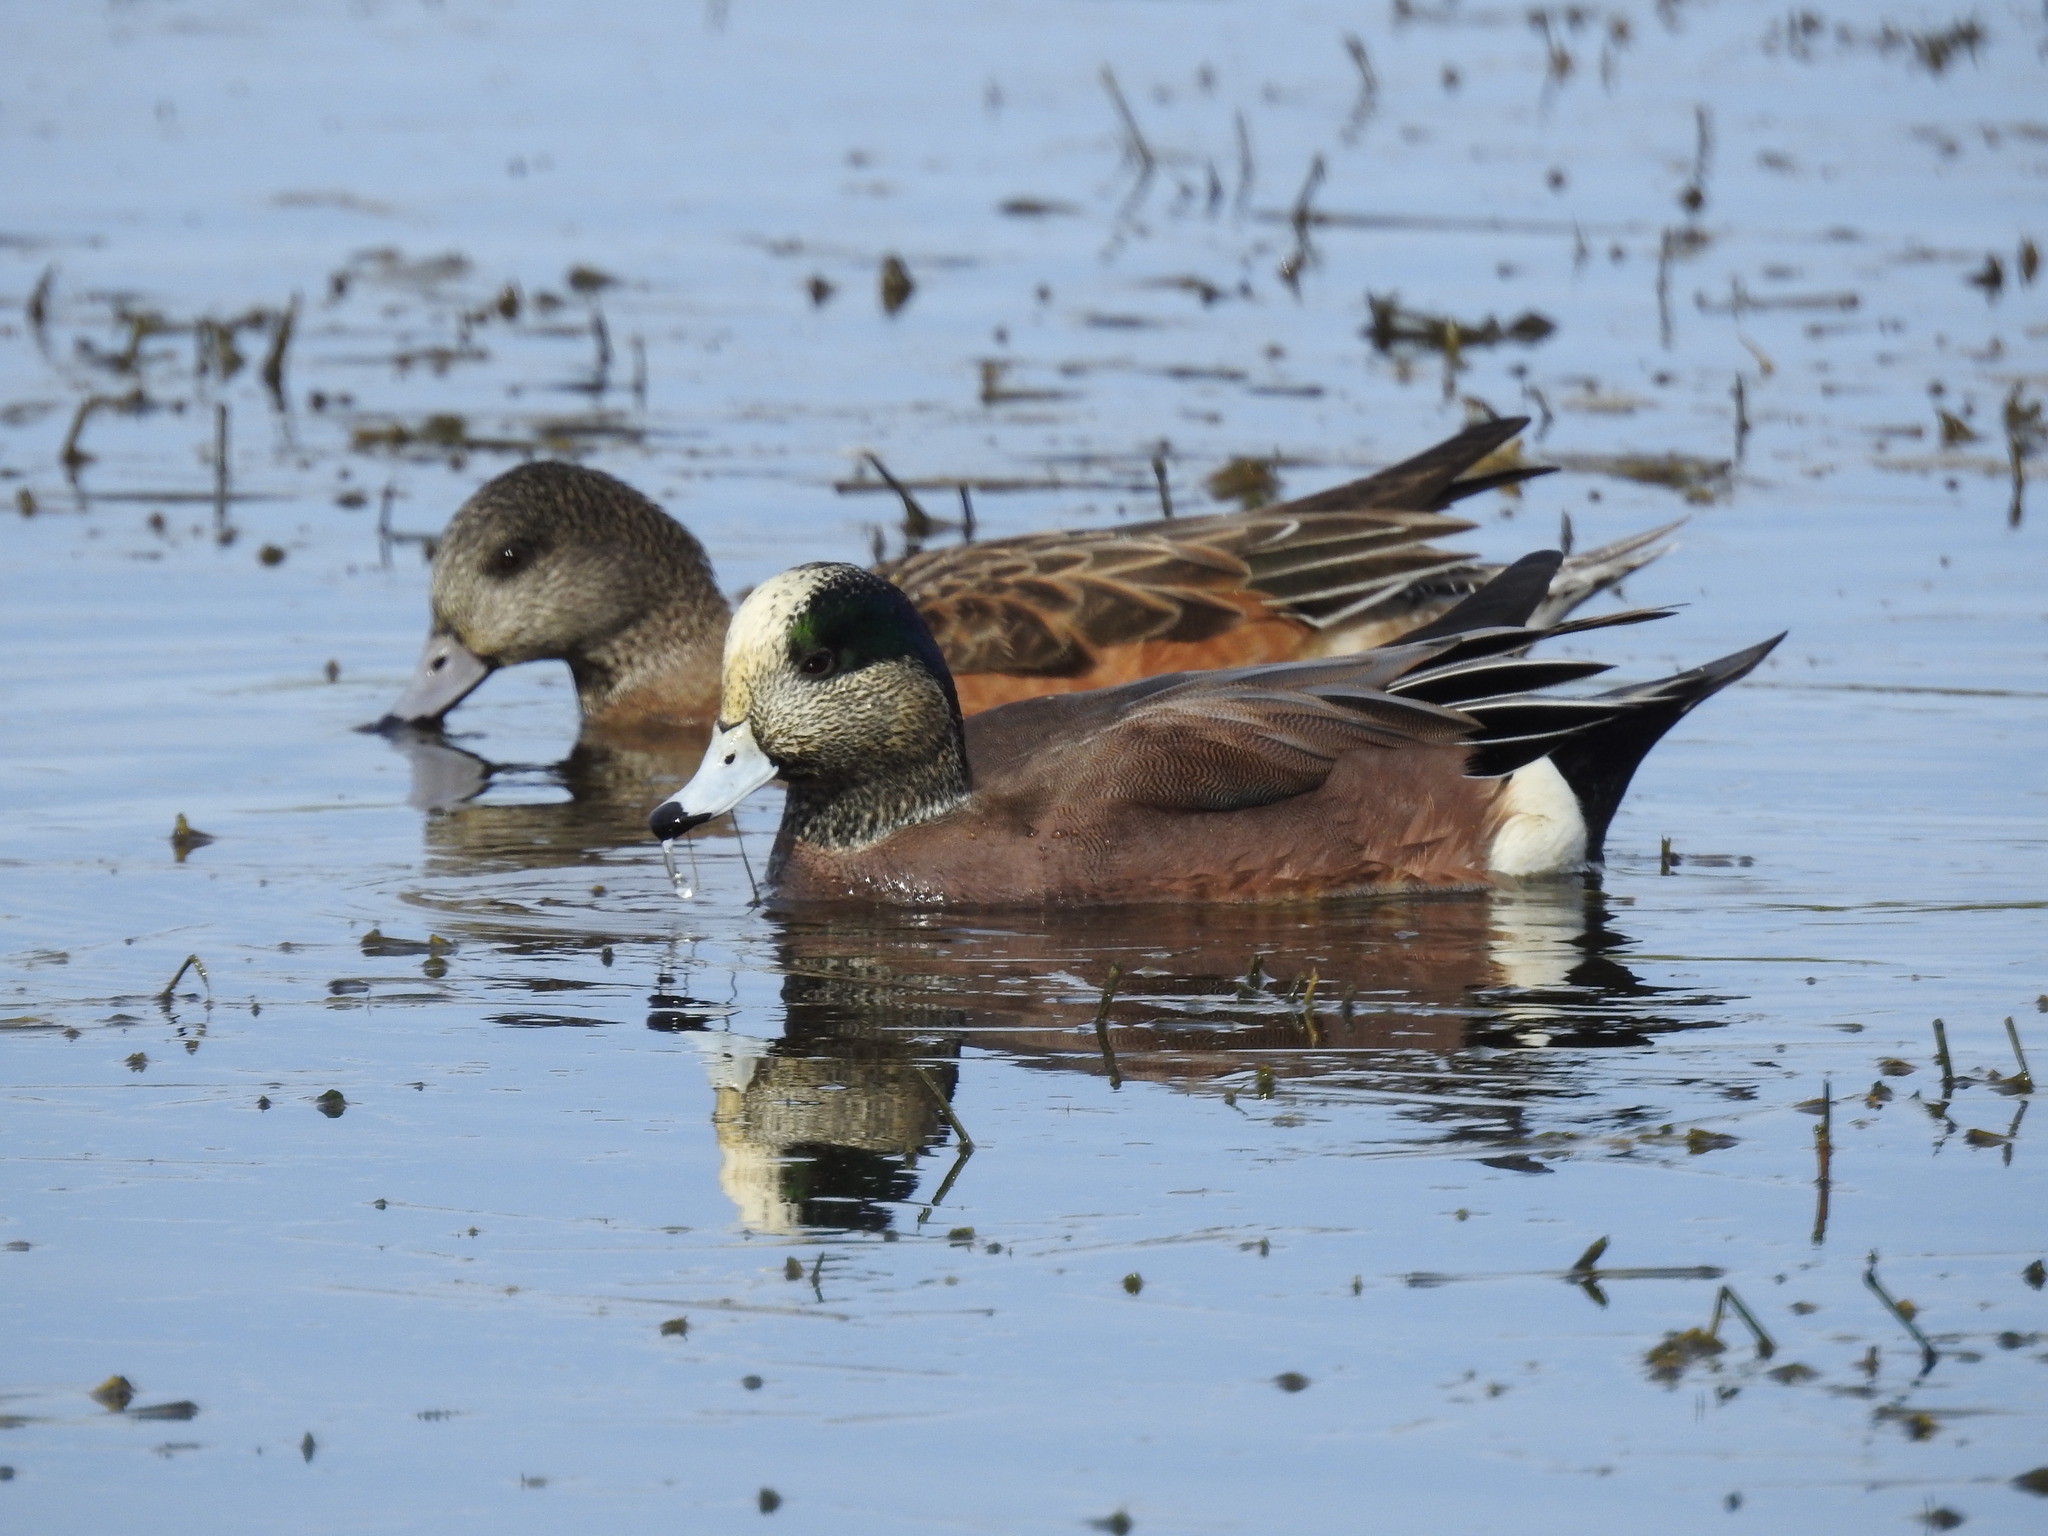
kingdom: Animalia
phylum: Chordata
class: Aves
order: Anseriformes
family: Anatidae
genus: Mareca
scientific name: Mareca americana
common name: American wigeon
